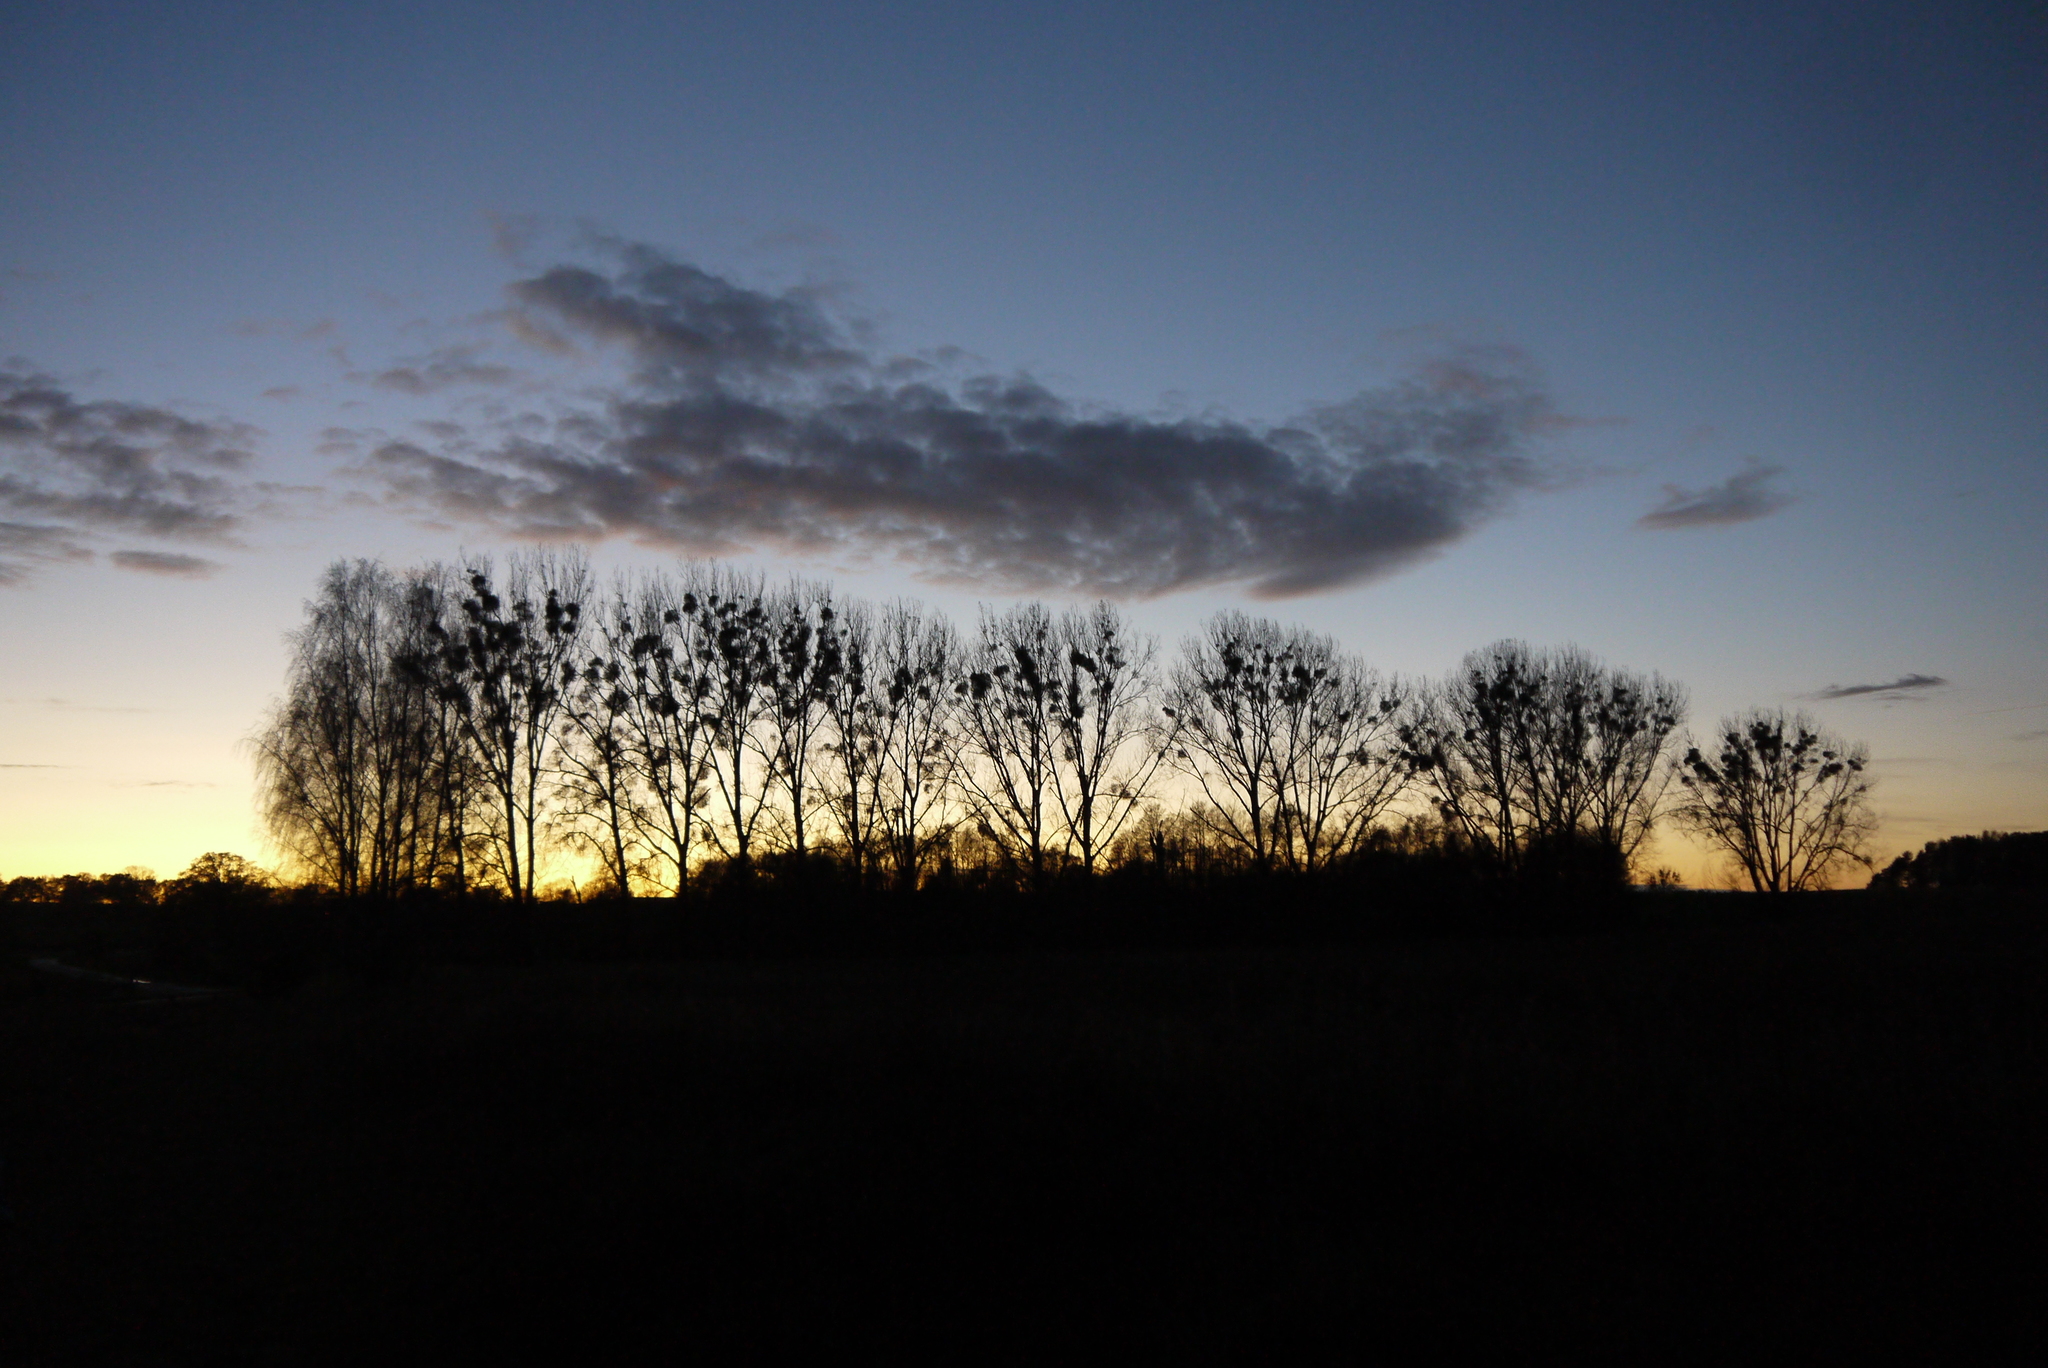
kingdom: Plantae
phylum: Tracheophyta
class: Magnoliopsida
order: Santalales
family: Viscaceae
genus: Viscum
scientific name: Viscum album
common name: Mistletoe
